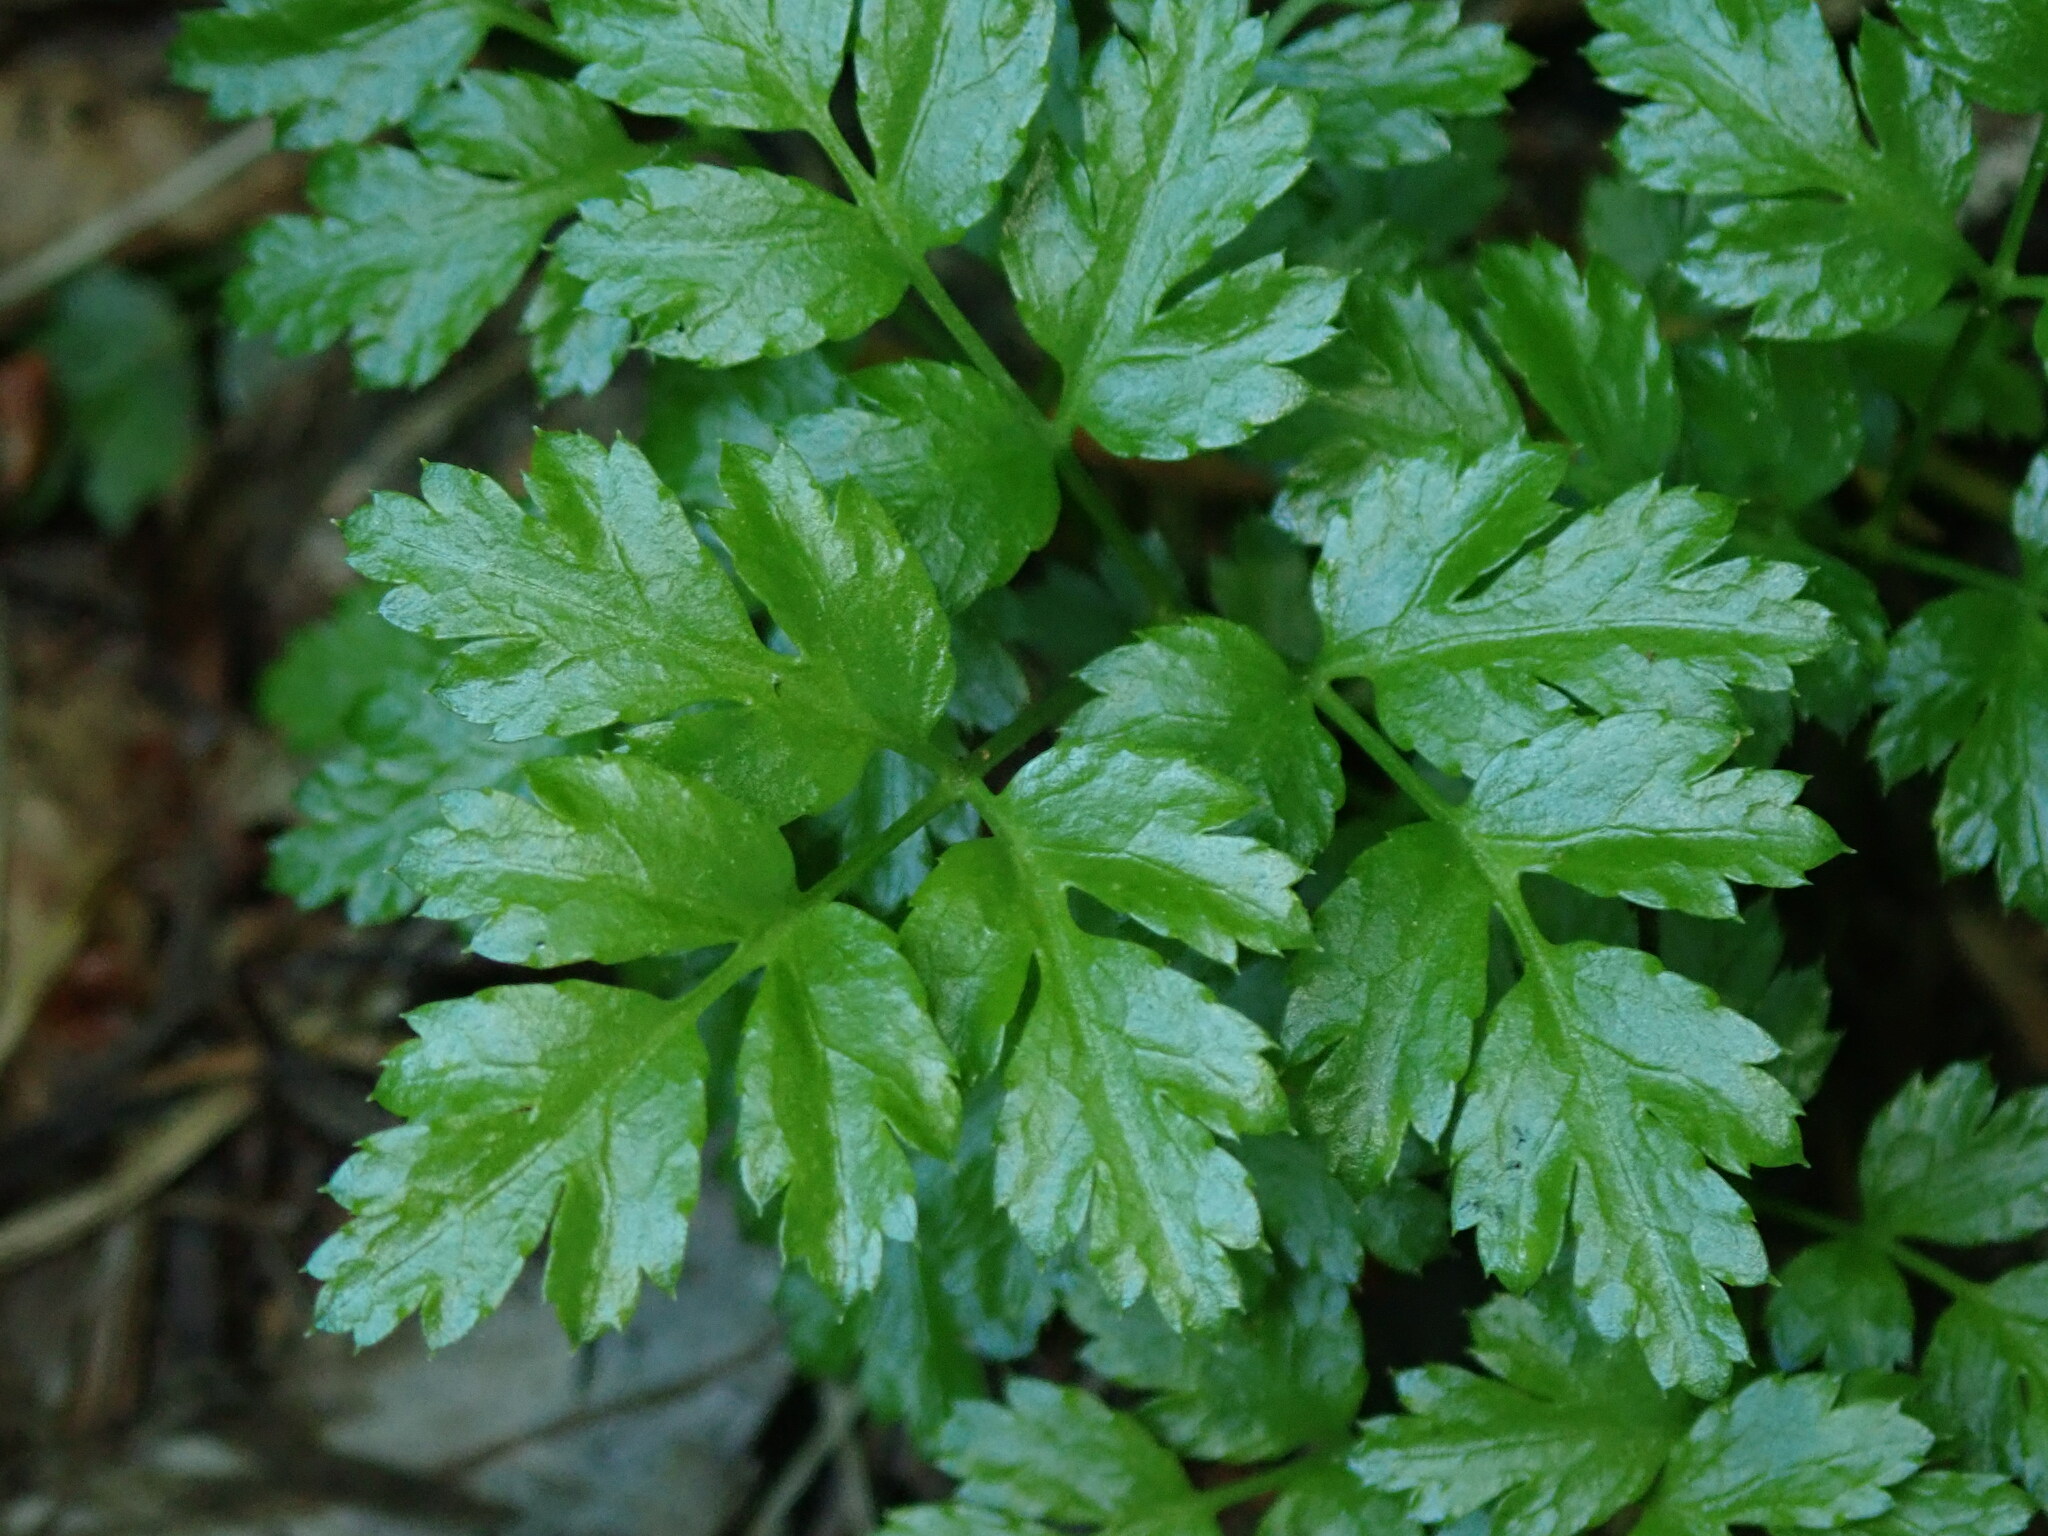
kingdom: Plantae
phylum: Tracheophyta
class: Magnoliopsida
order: Ranunculales
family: Ranunculaceae
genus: Coptis
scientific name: Coptis aspleniifolia
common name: Fern-leaved goldthread
